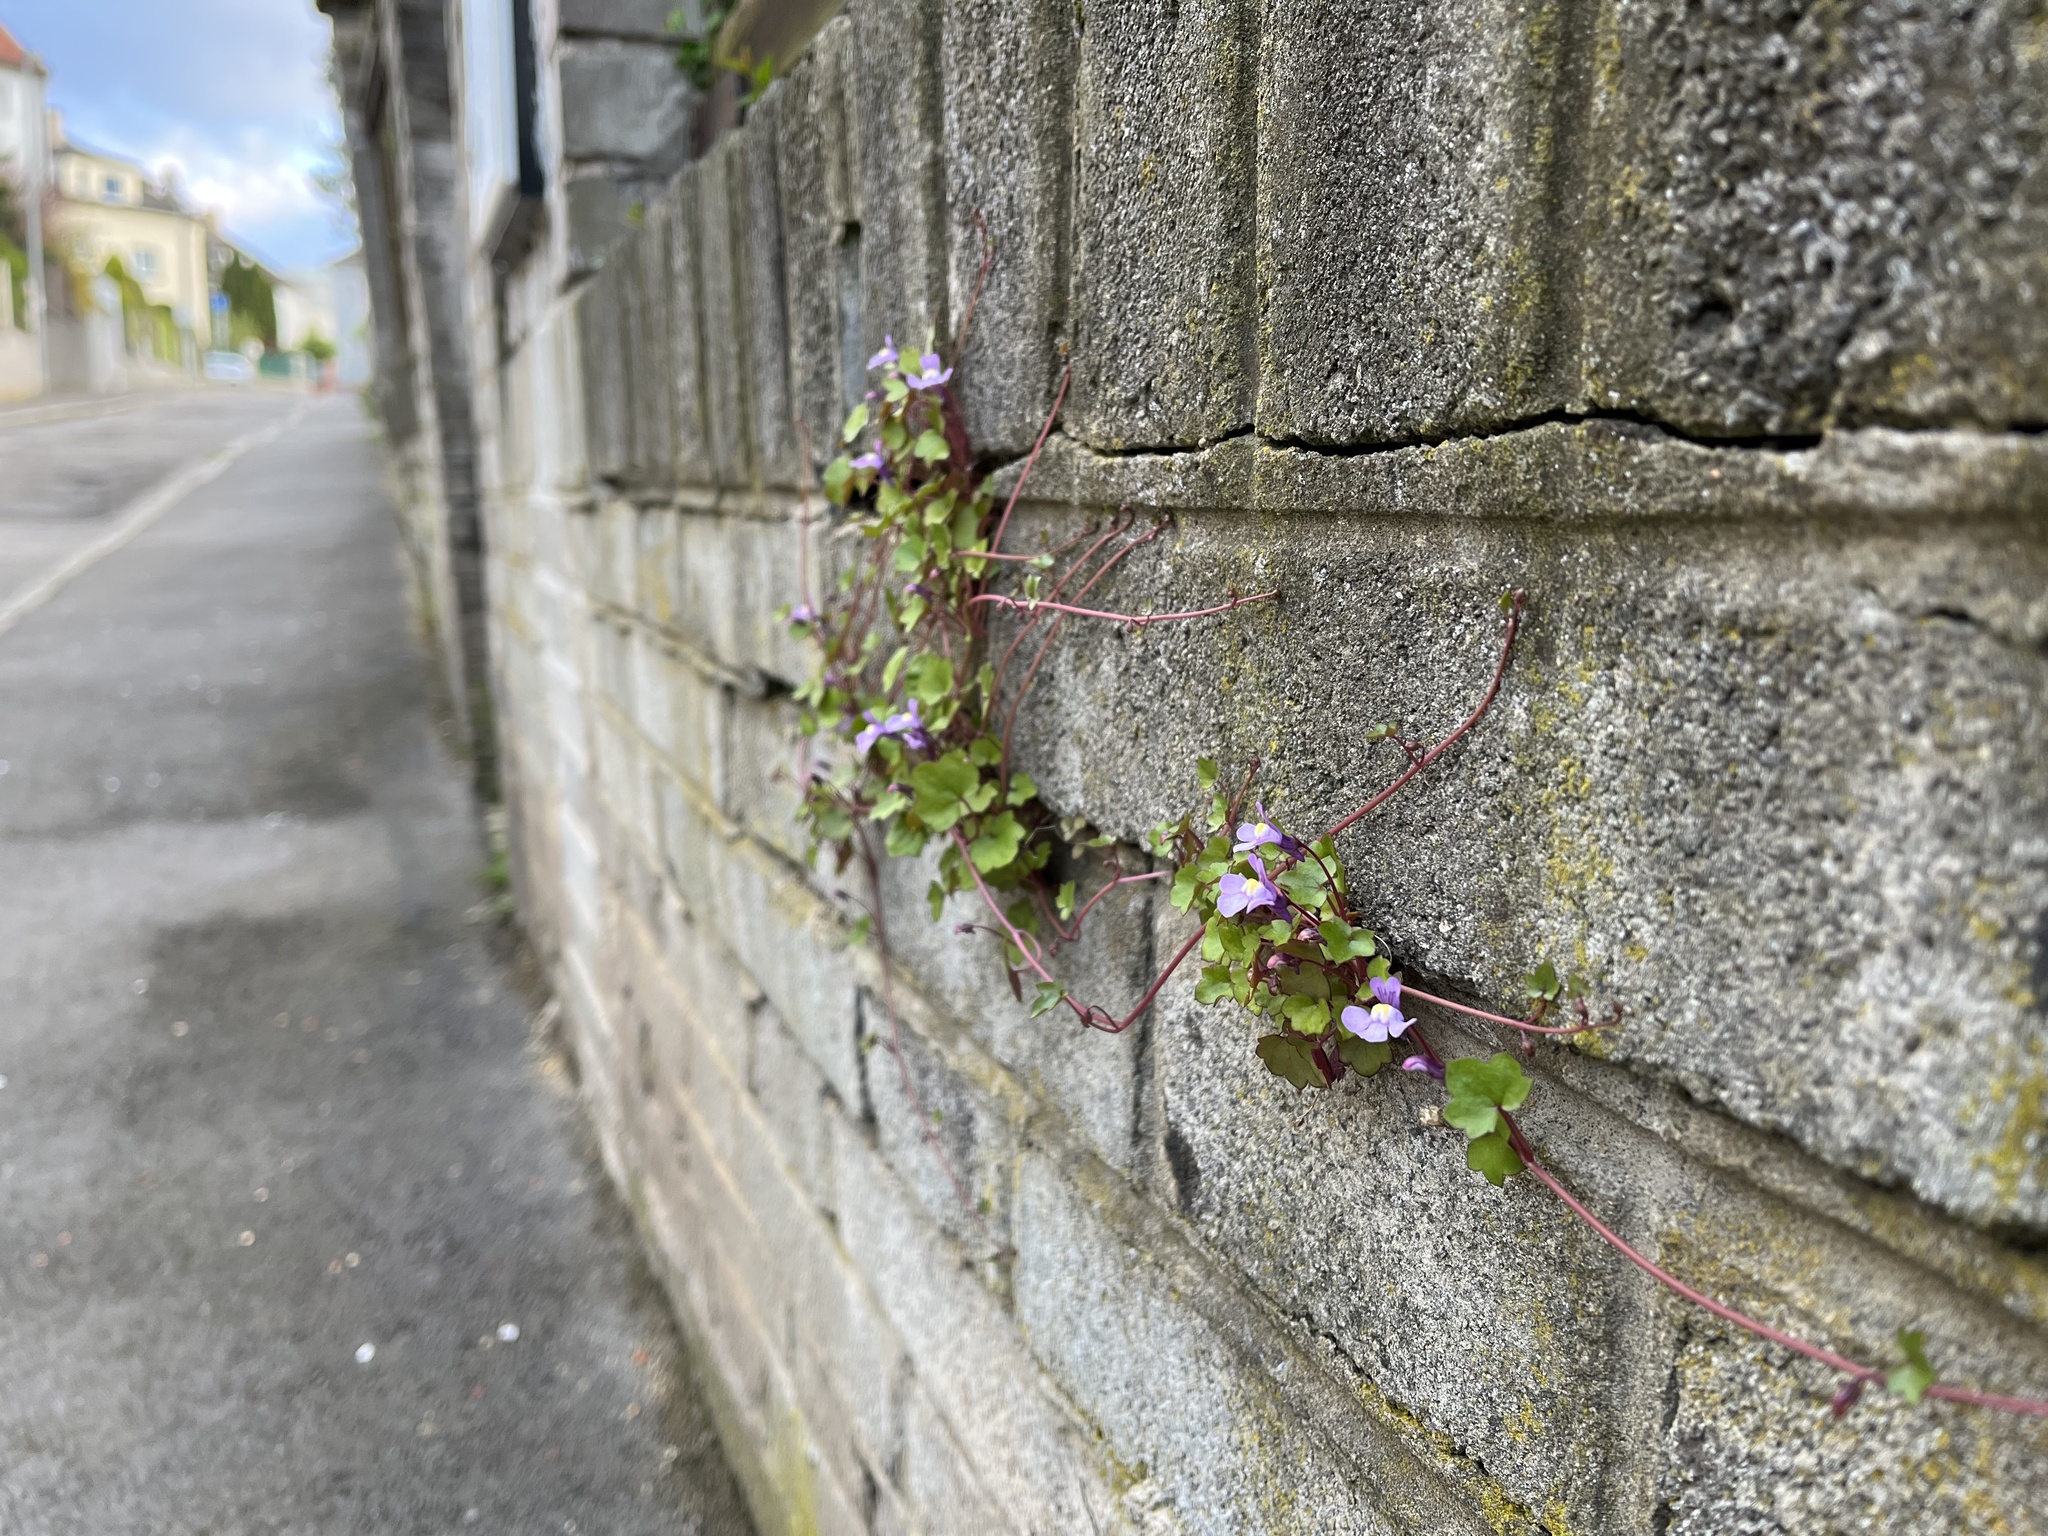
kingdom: Plantae
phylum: Tracheophyta
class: Magnoliopsida
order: Lamiales
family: Plantaginaceae
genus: Cymbalaria
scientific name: Cymbalaria muralis
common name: Ivy-leaved toadflax
